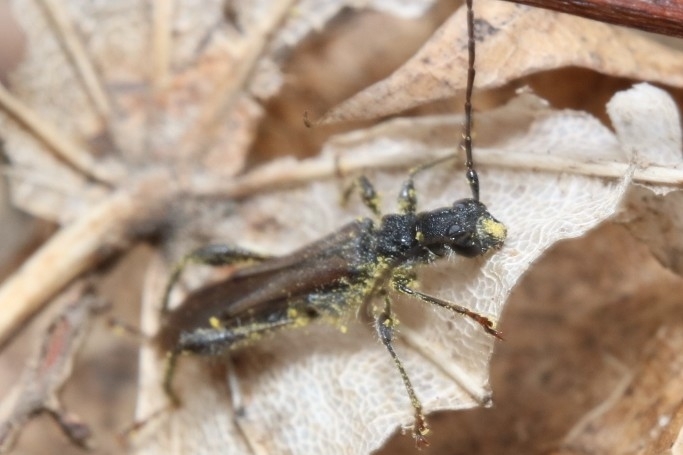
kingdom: Animalia
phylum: Arthropoda
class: Insecta
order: Coleoptera
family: Cerambycidae
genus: Callimoxys
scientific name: Callimoxys sanguinicollis
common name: Blood-necked longhorn beetle
